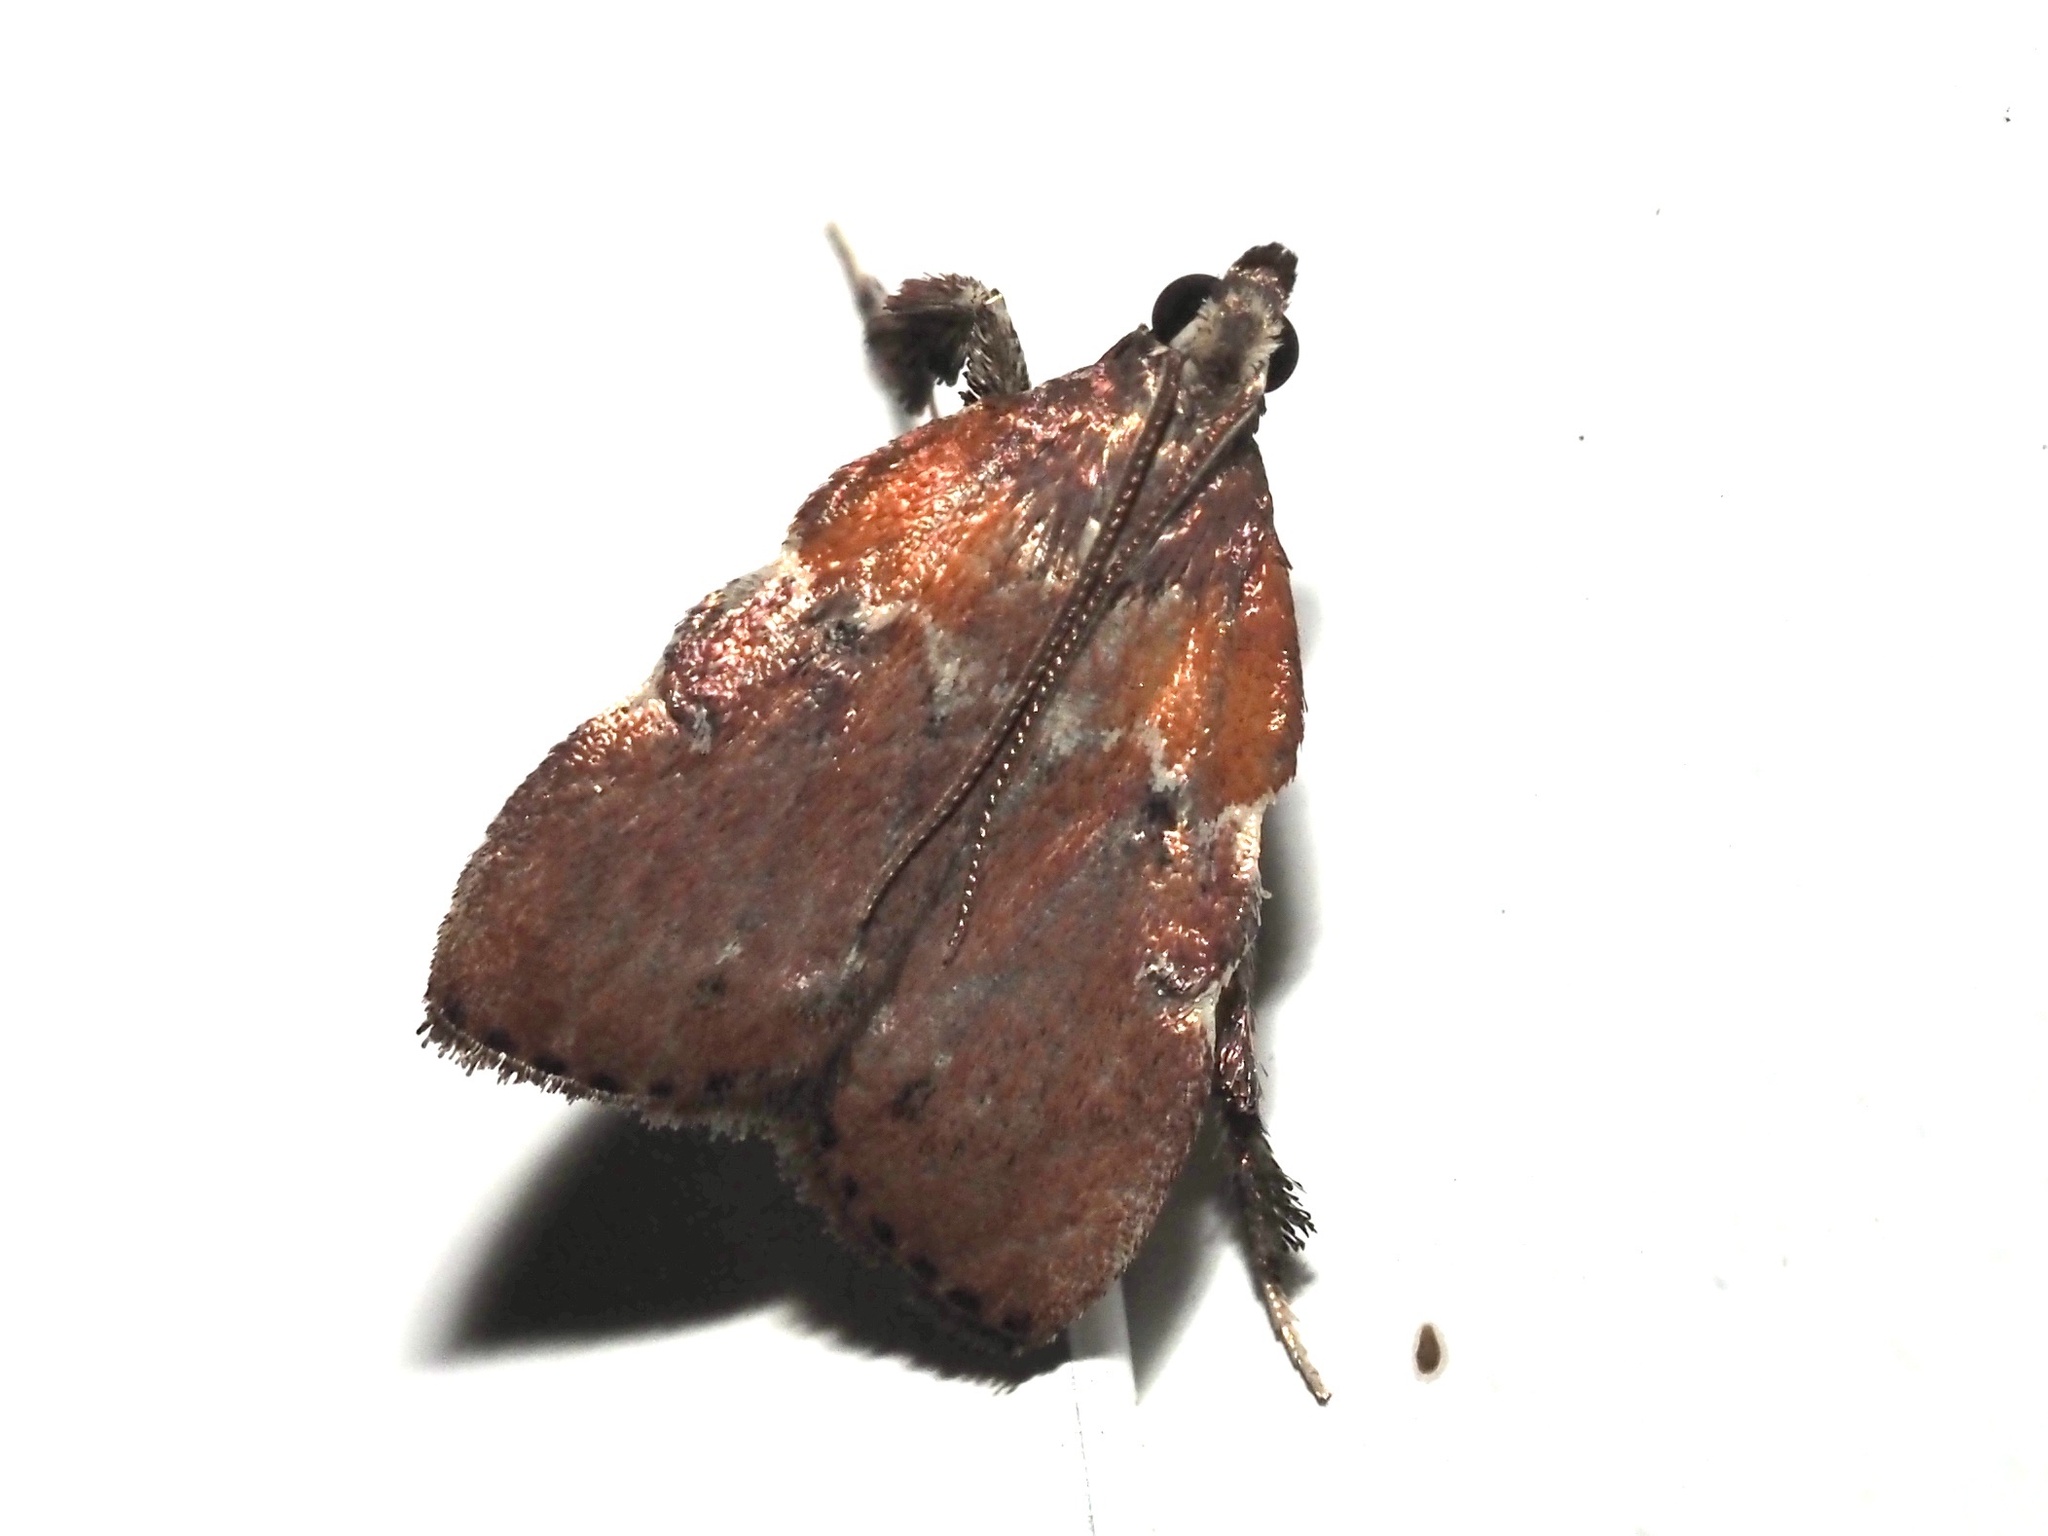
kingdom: Animalia
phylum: Arthropoda
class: Insecta
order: Lepidoptera
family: Pyralidae
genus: Galasa
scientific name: Galasa nigrinodis
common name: Boxwood leaftier moth
